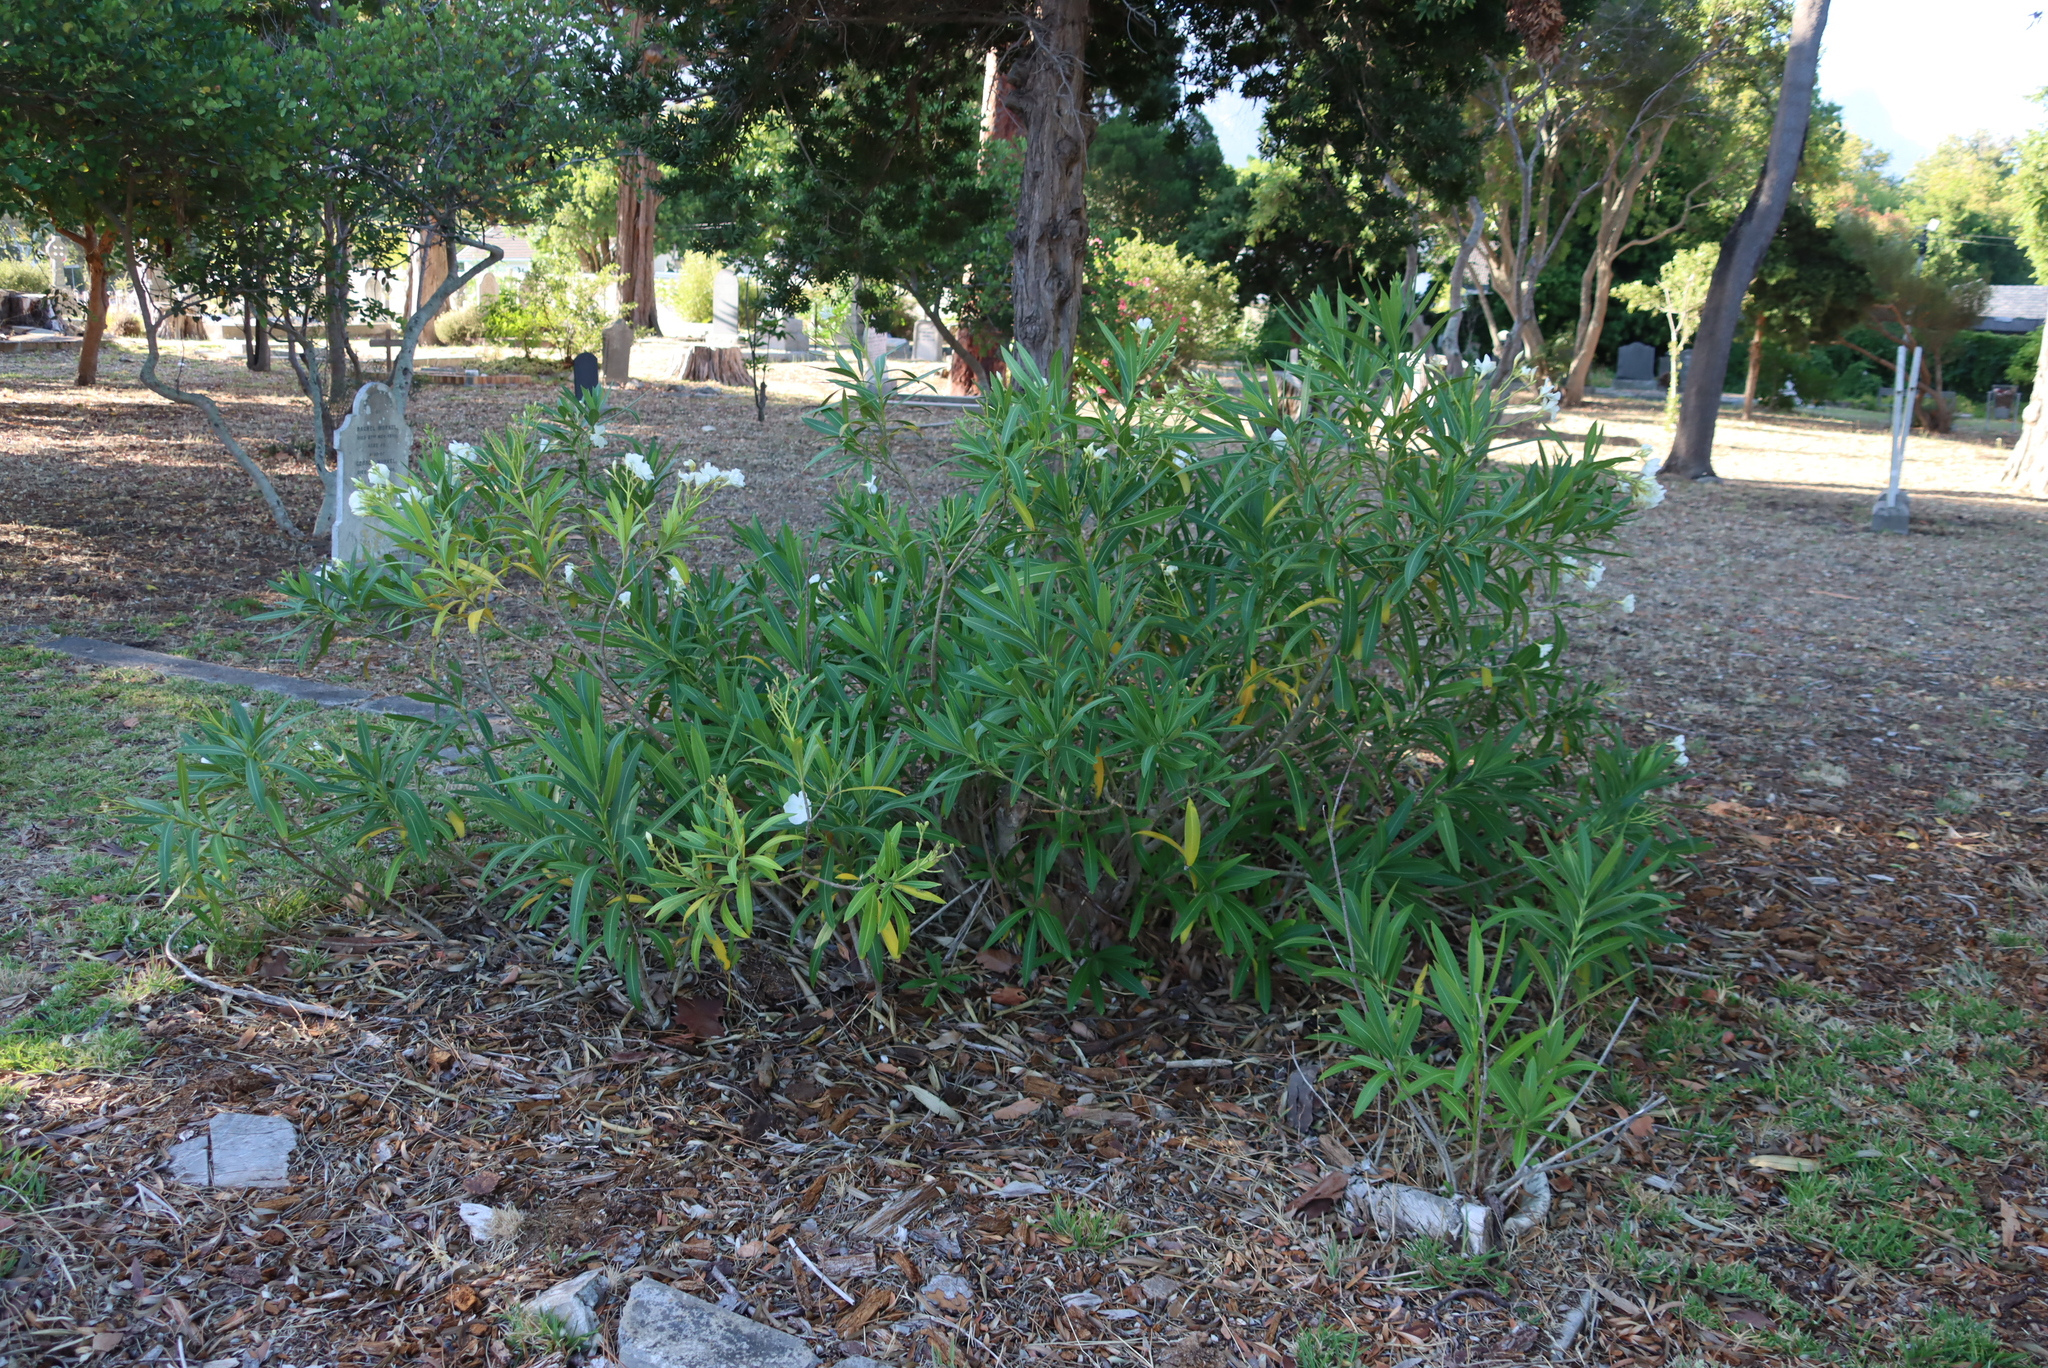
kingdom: Plantae
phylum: Tracheophyta
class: Magnoliopsida
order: Gentianales
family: Apocynaceae
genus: Nerium
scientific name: Nerium oleander
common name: Oleander
